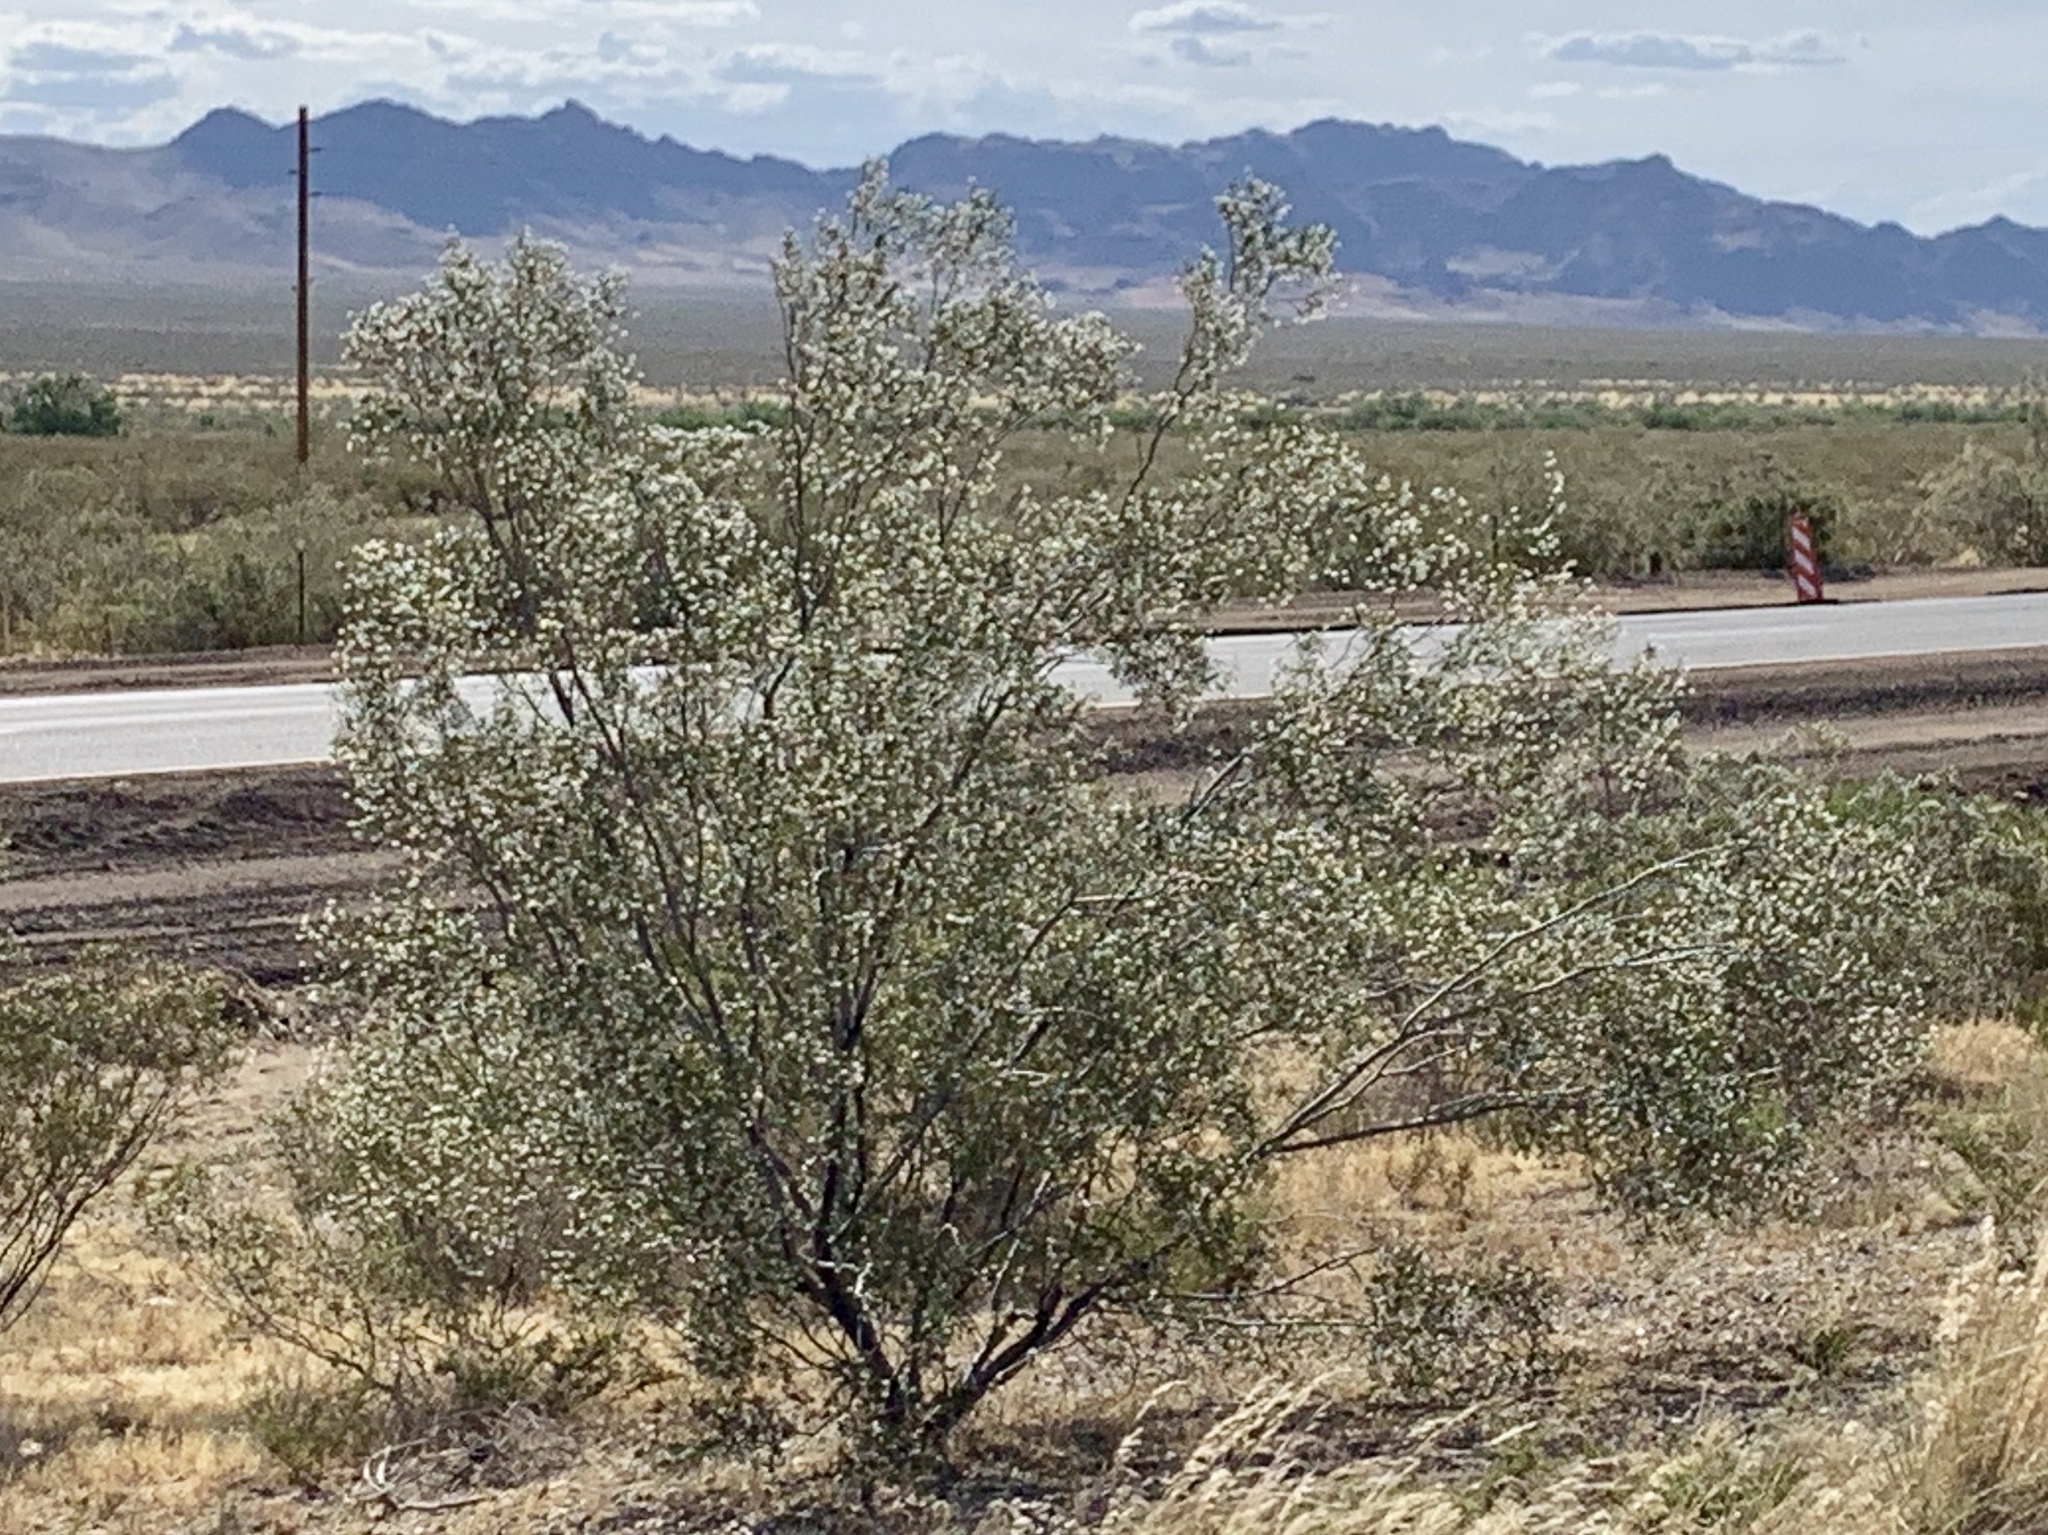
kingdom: Plantae
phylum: Tracheophyta
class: Magnoliopsida
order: Zygophyllales
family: Zygophyllaceae
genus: Larrea
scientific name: Larrea tridentata
